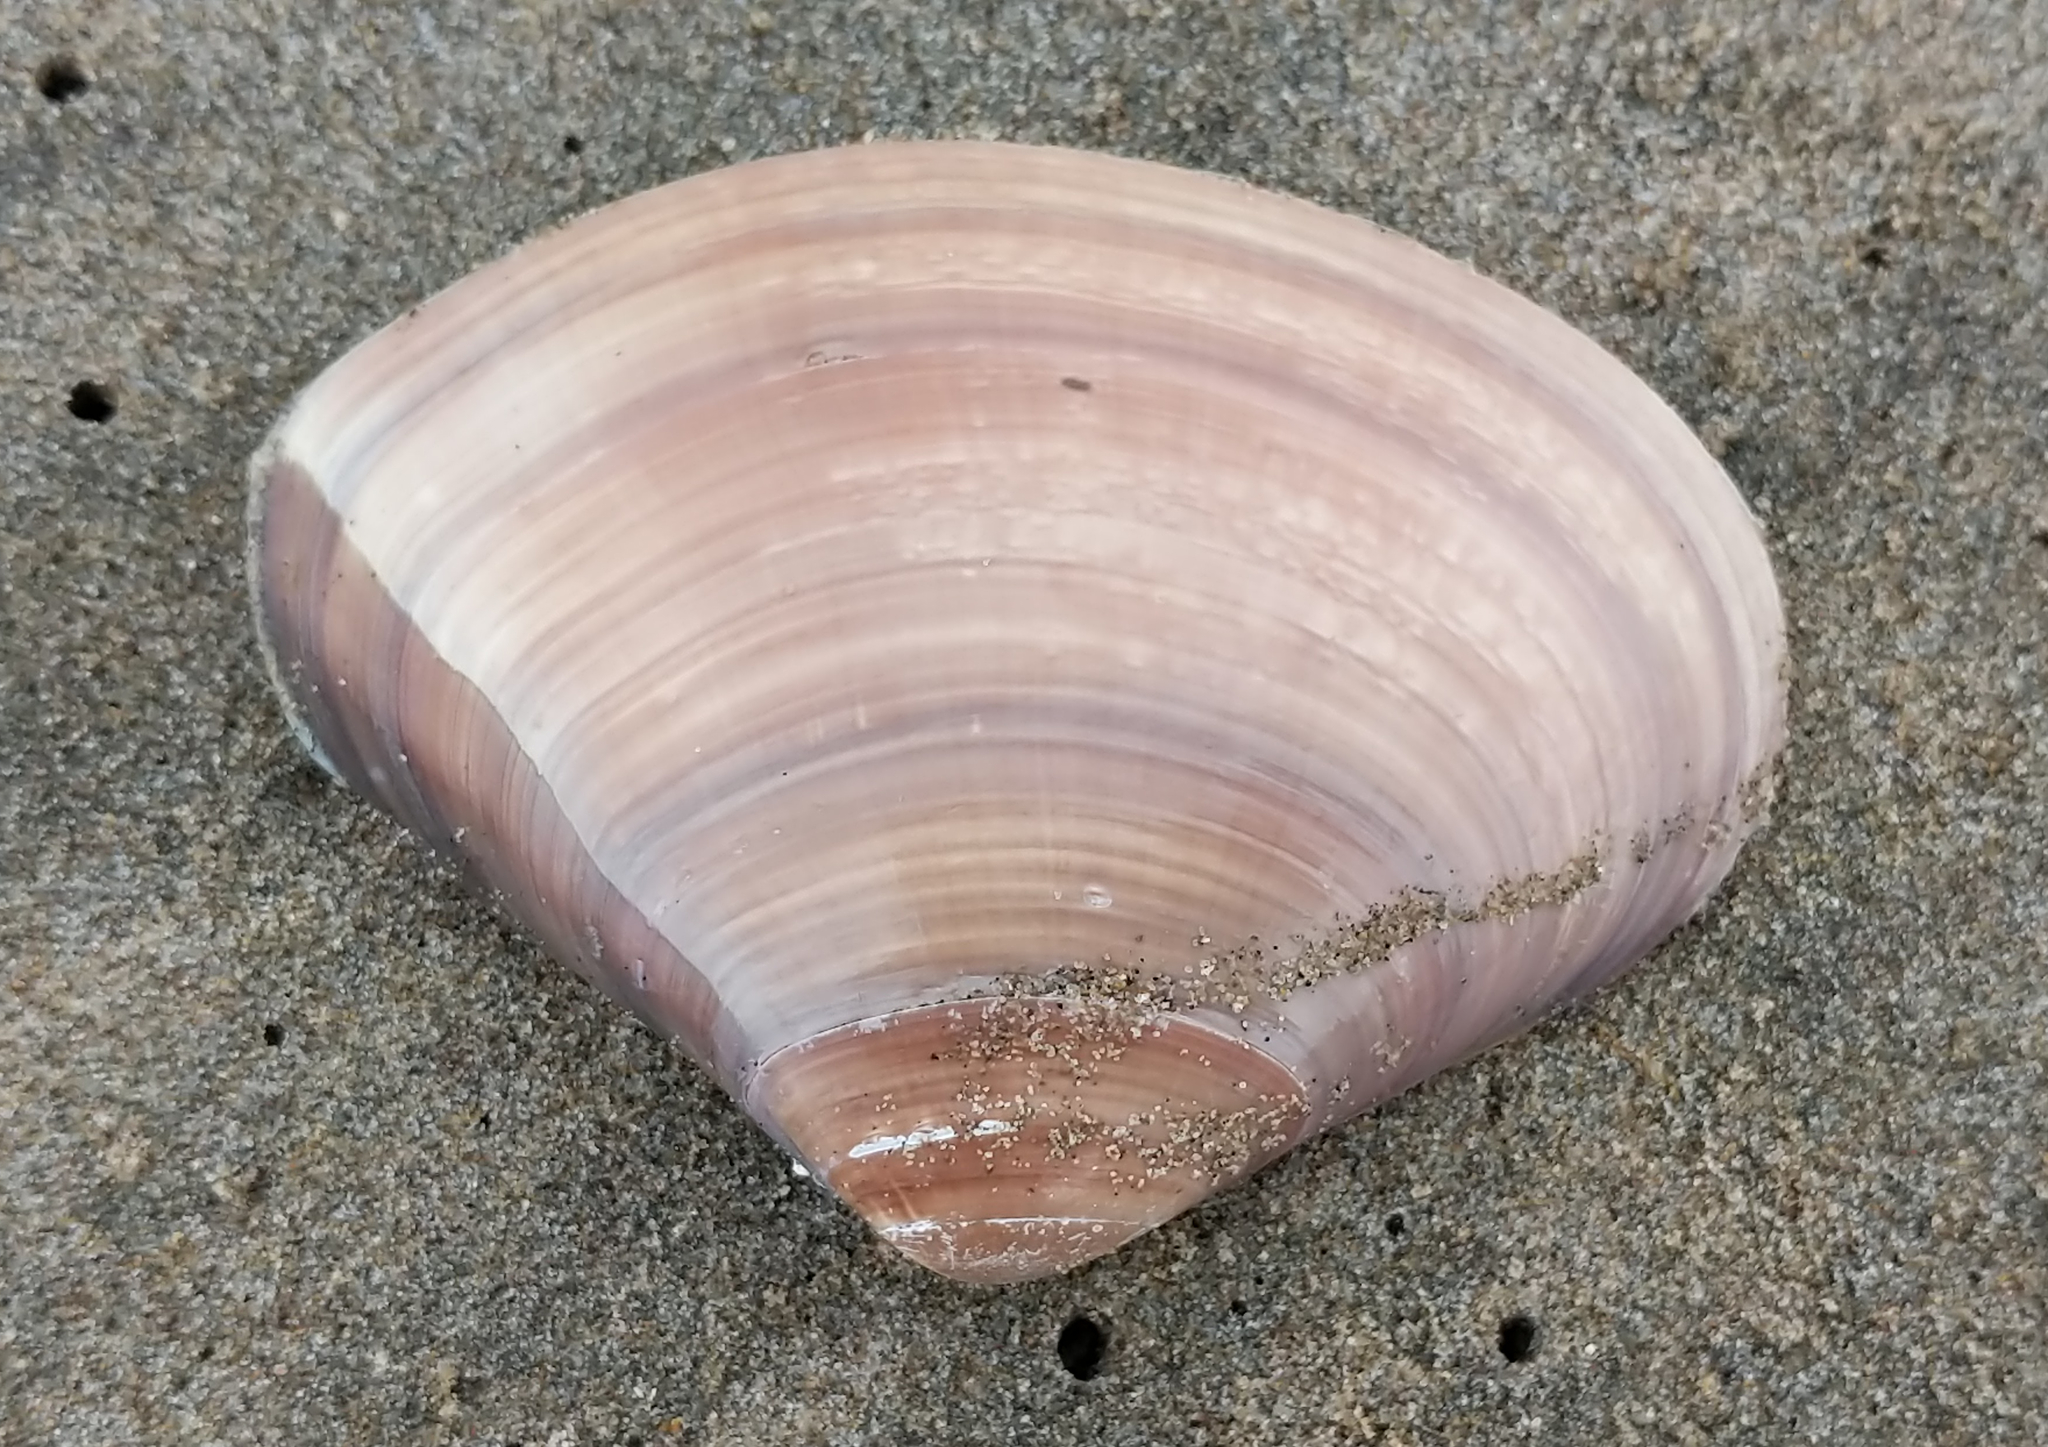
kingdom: Animalia
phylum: Mollusca
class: Bivalvia
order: Venerida
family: Veneridae
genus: Tivela
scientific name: Tivela stultorum
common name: Pismo clam
